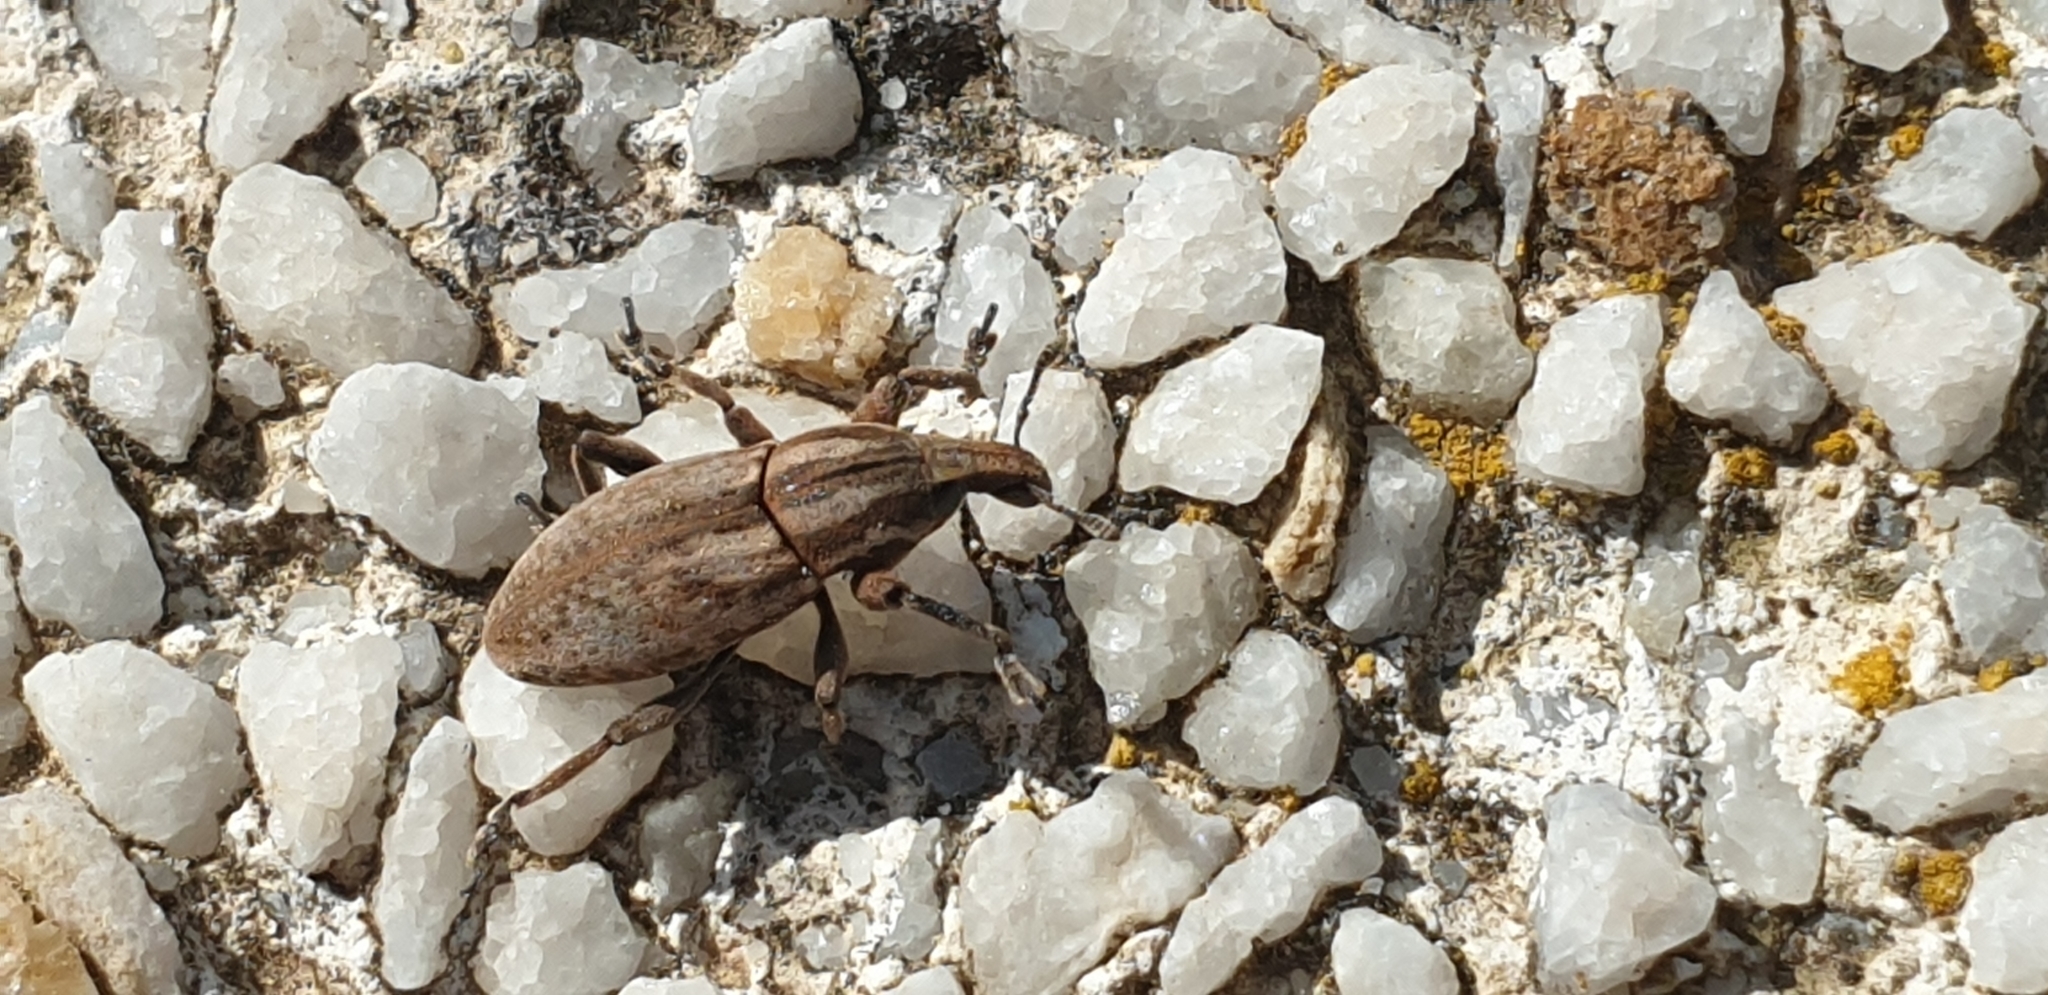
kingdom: Animalia
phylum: Arthropoda
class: Insecta
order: Coleoptera
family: Curculionidae
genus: Pseudocleonus
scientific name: Pseudocleonus cinereus
